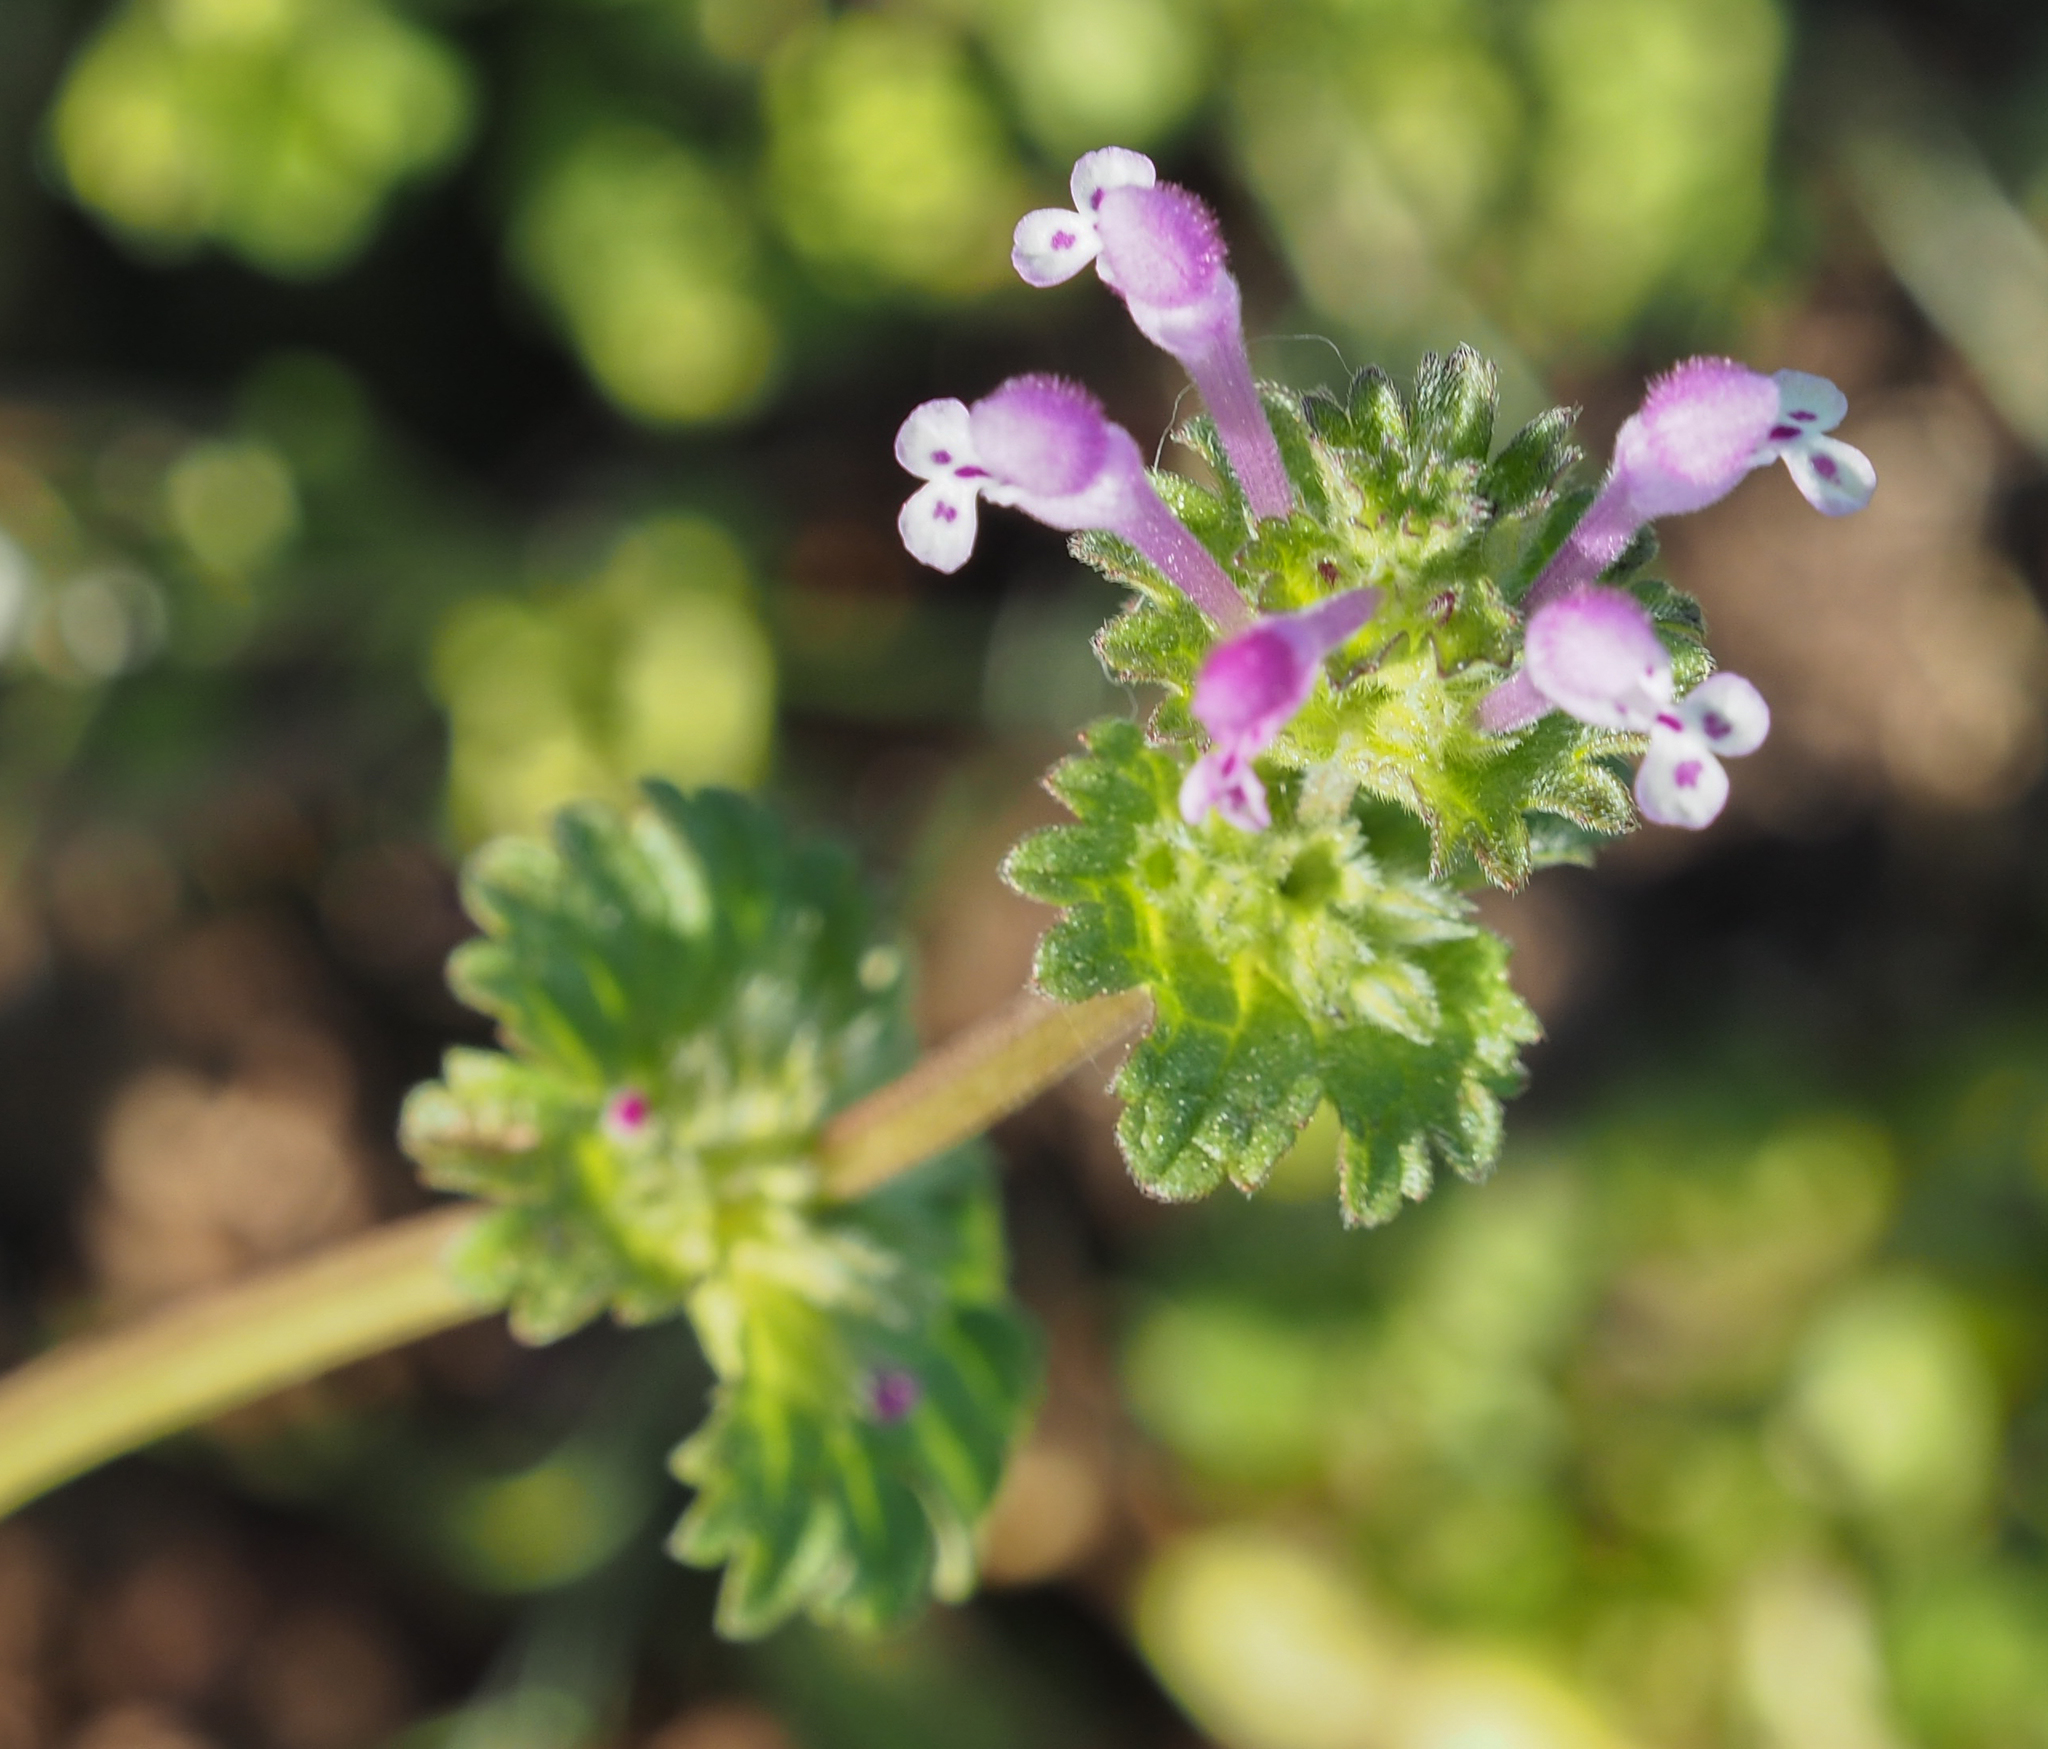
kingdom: Plantae
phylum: Tracheophyta
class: Magnoliopsida
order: Lamiales
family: Lamiaceae
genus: Lamium
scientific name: Lamium amplexicaule
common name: Henbit dead-nettle
